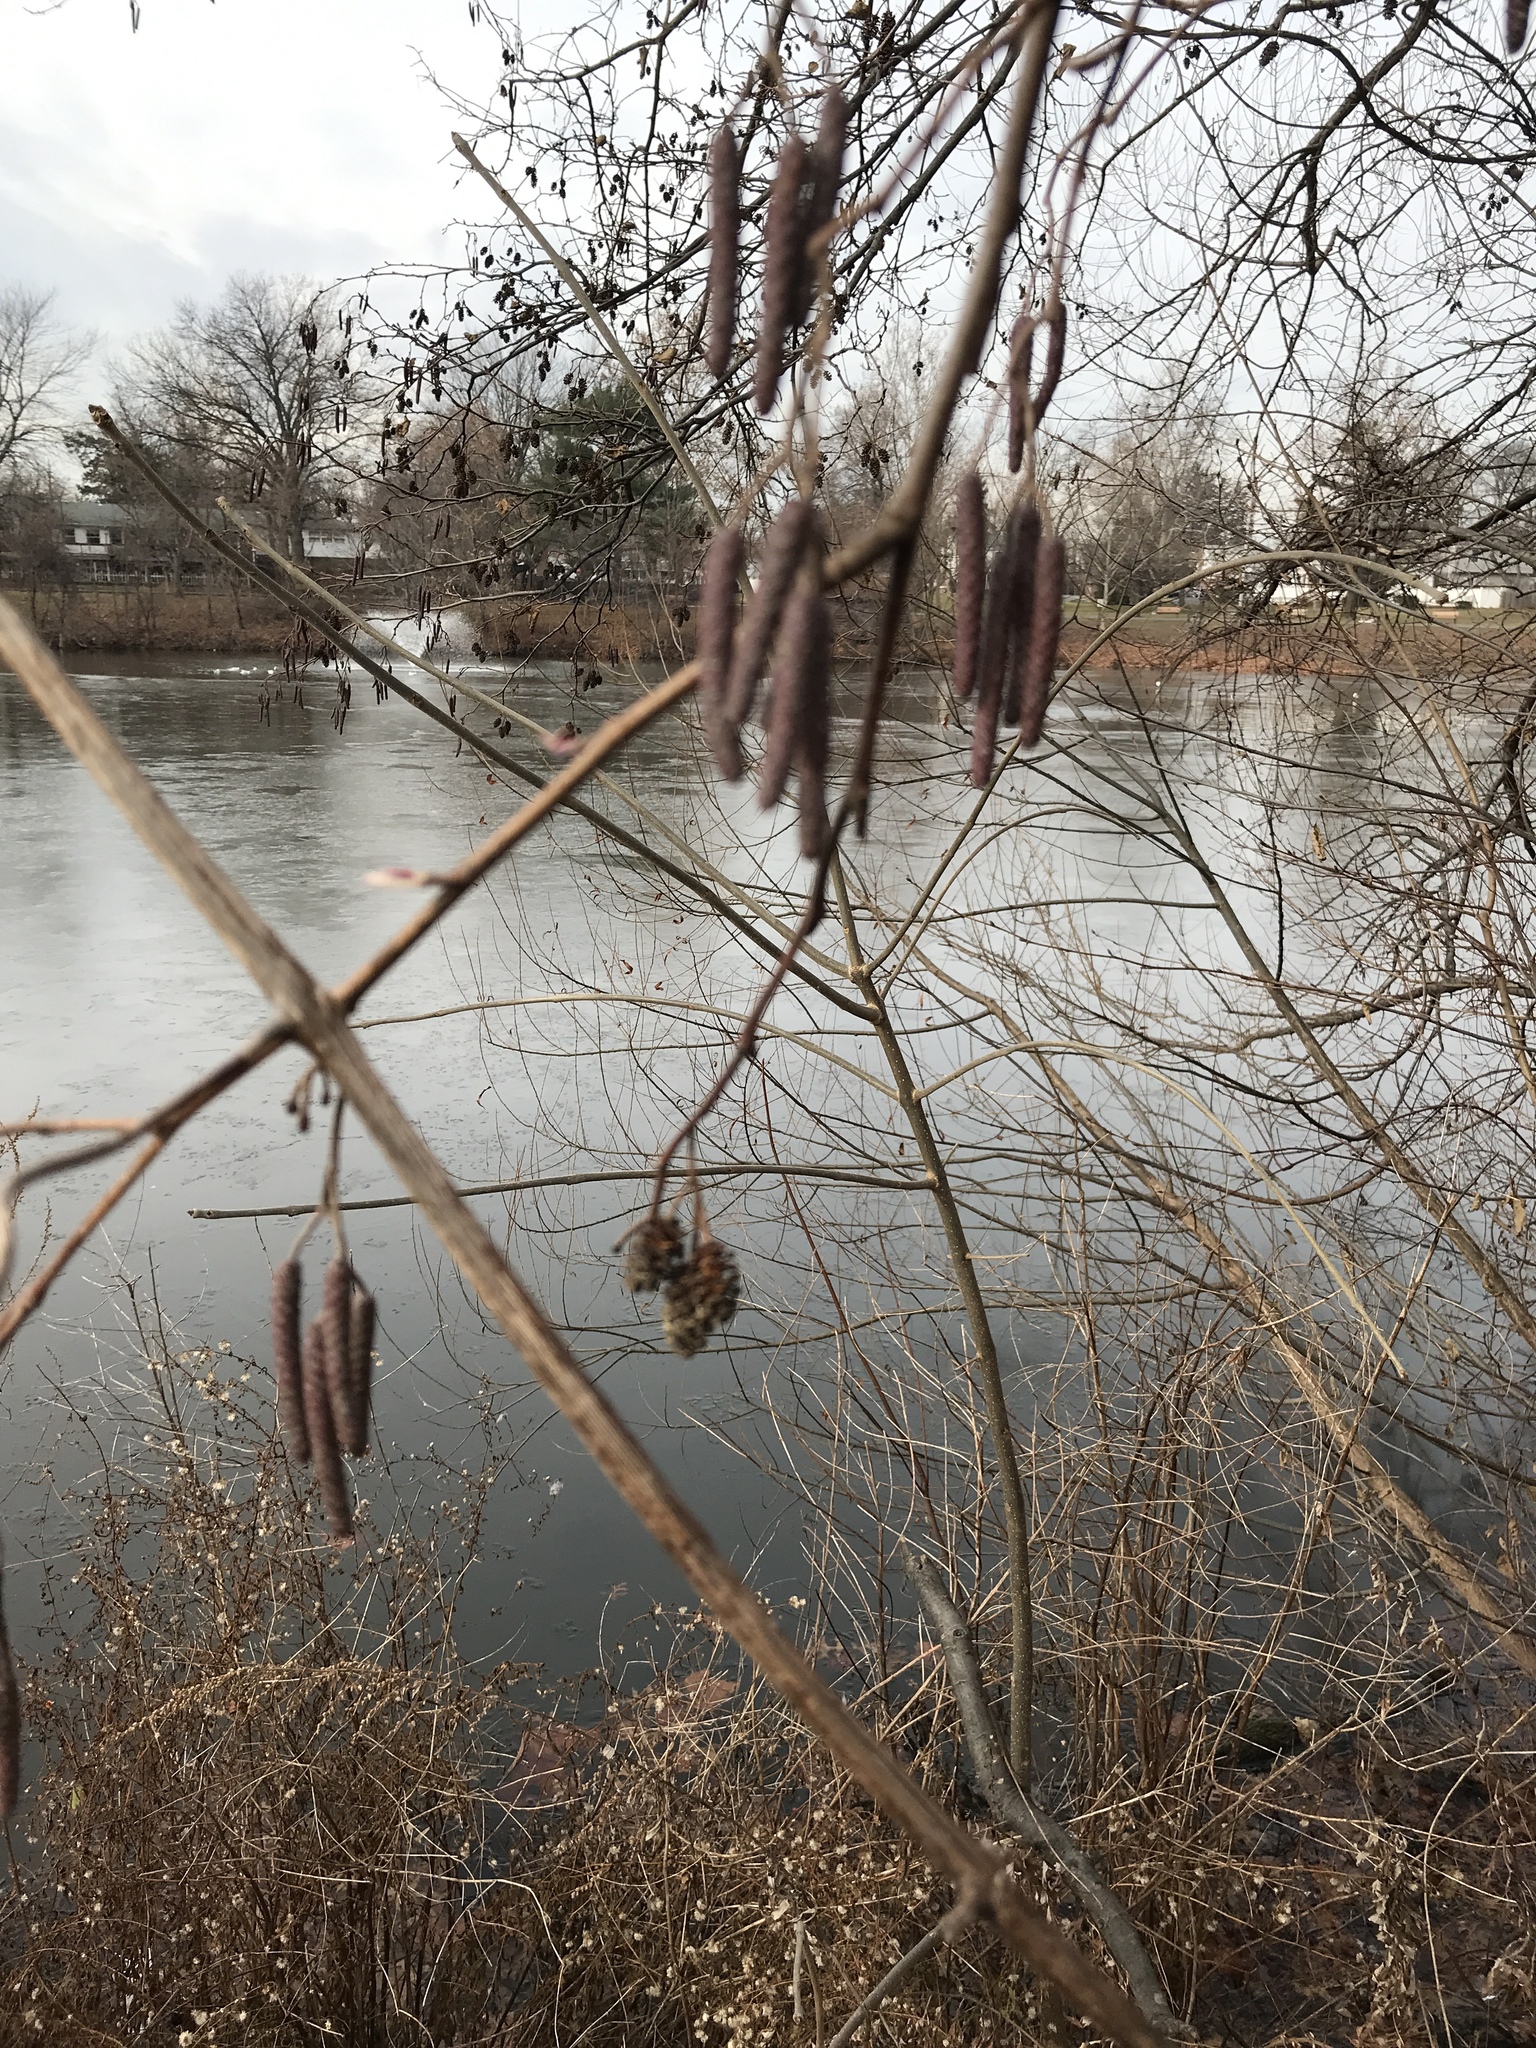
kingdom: Plantae
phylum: Tracheophyta
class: Magnoliopsida
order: Fagales
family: Betulaceae
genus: Alnus
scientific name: Alnus glutinosa
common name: Black alder
